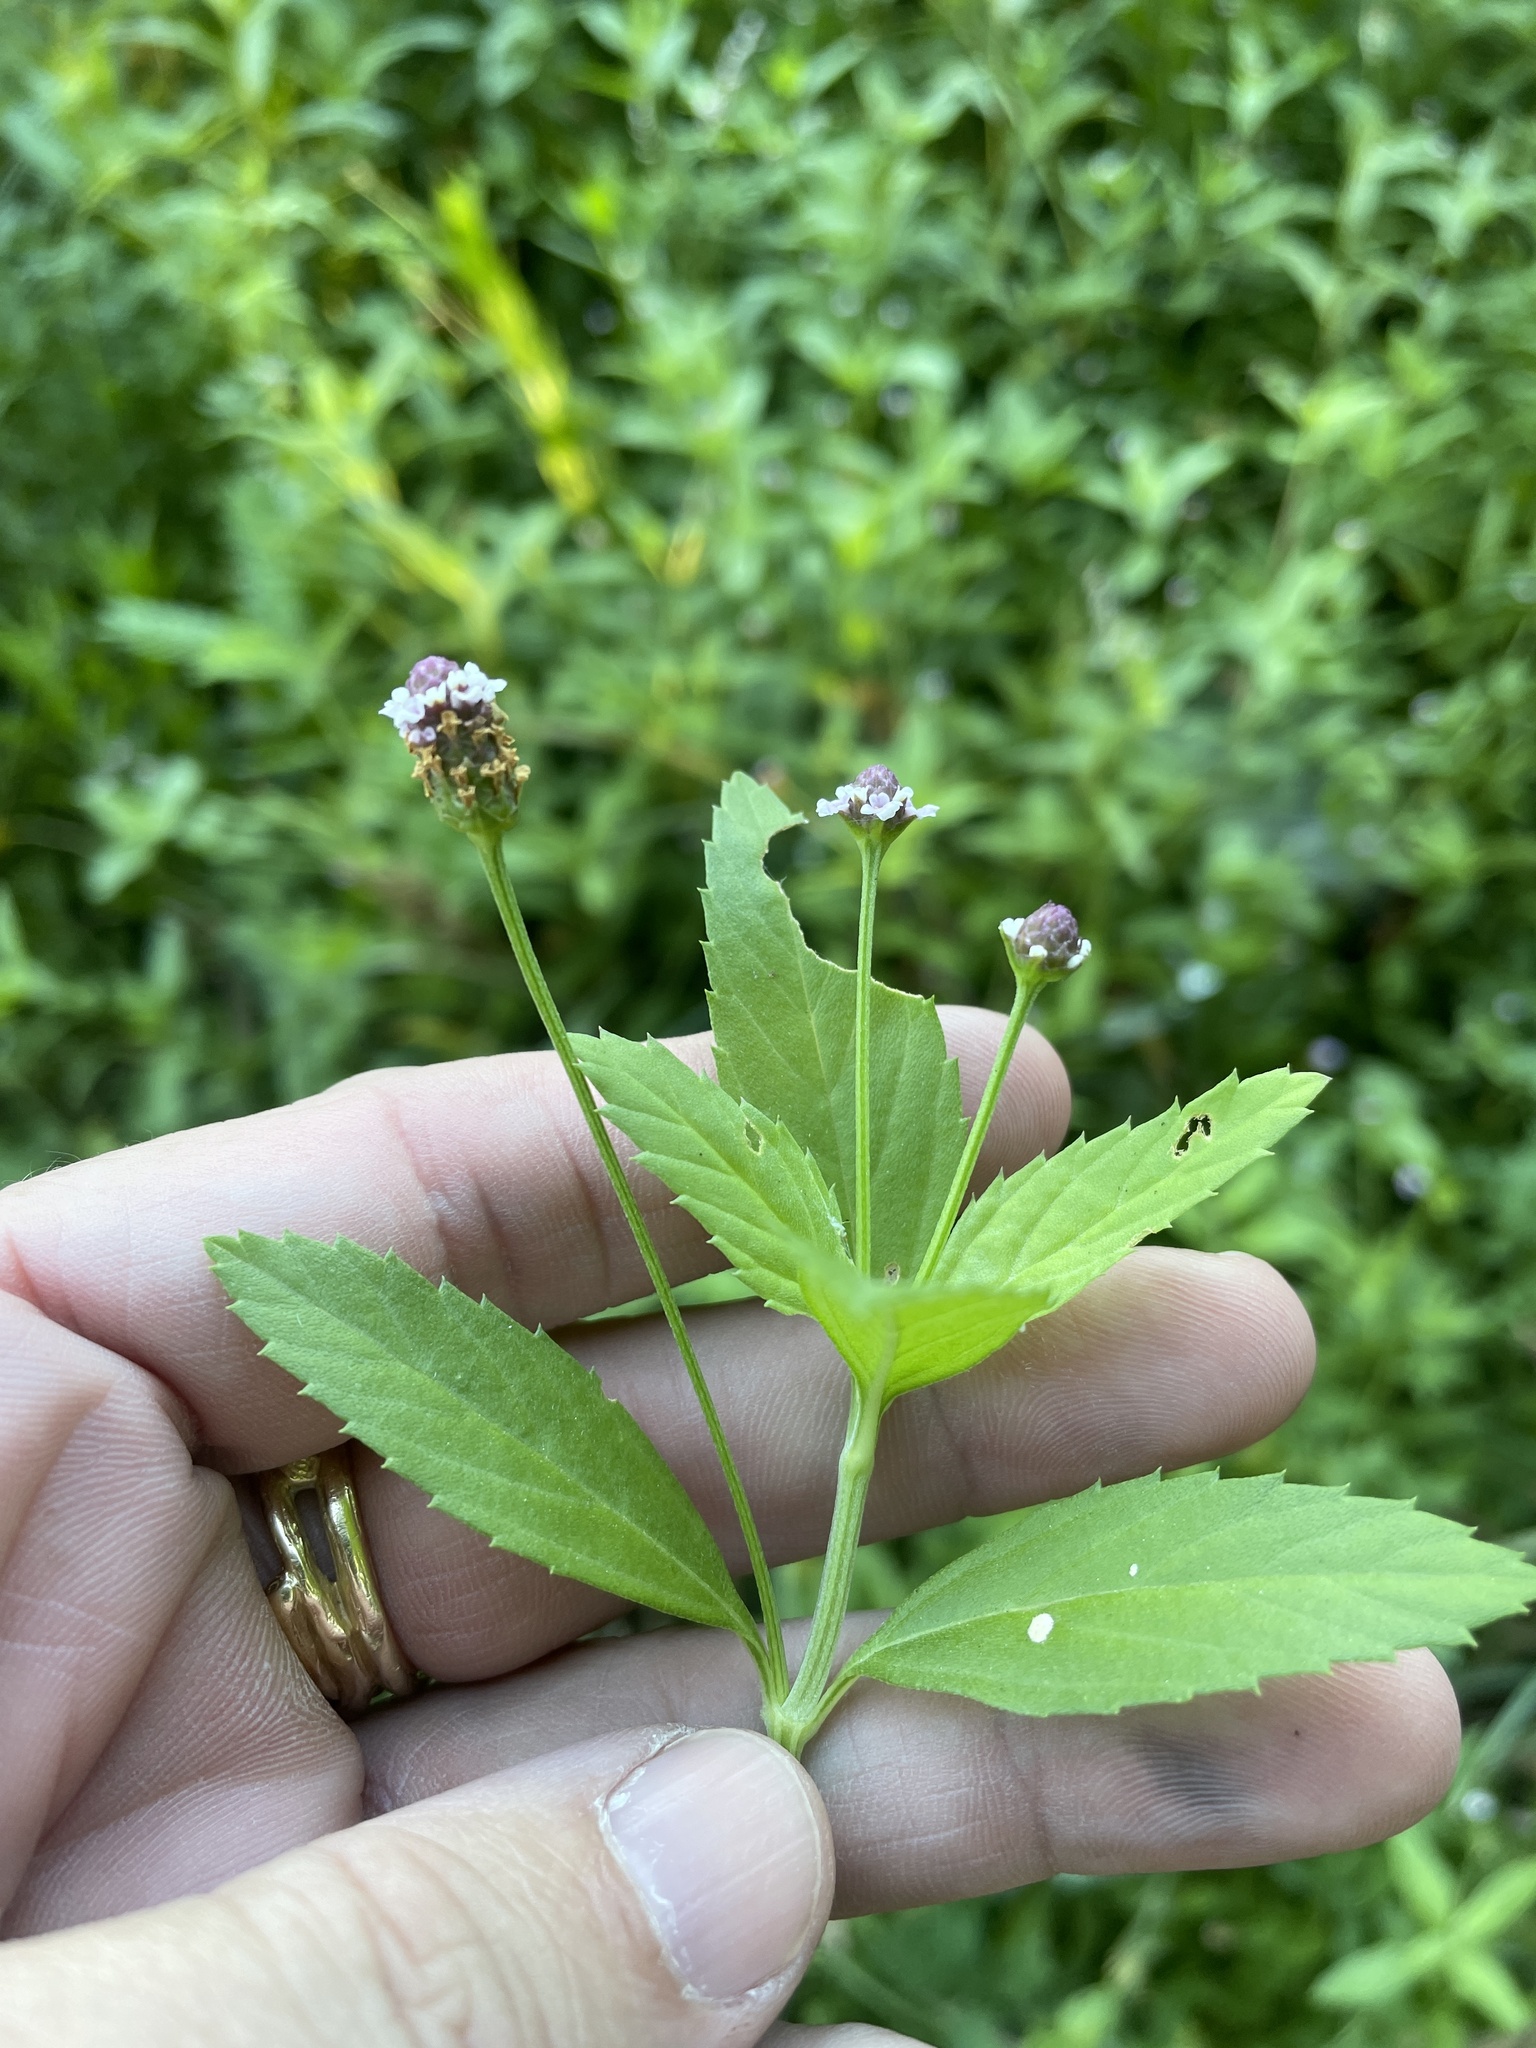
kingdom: Plantae
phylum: Tracheophyta
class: Magnoliopsida
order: Lamiales
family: Verbenaceae
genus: Phyla
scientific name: Phyla lanceolata
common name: Northern fogfruit
